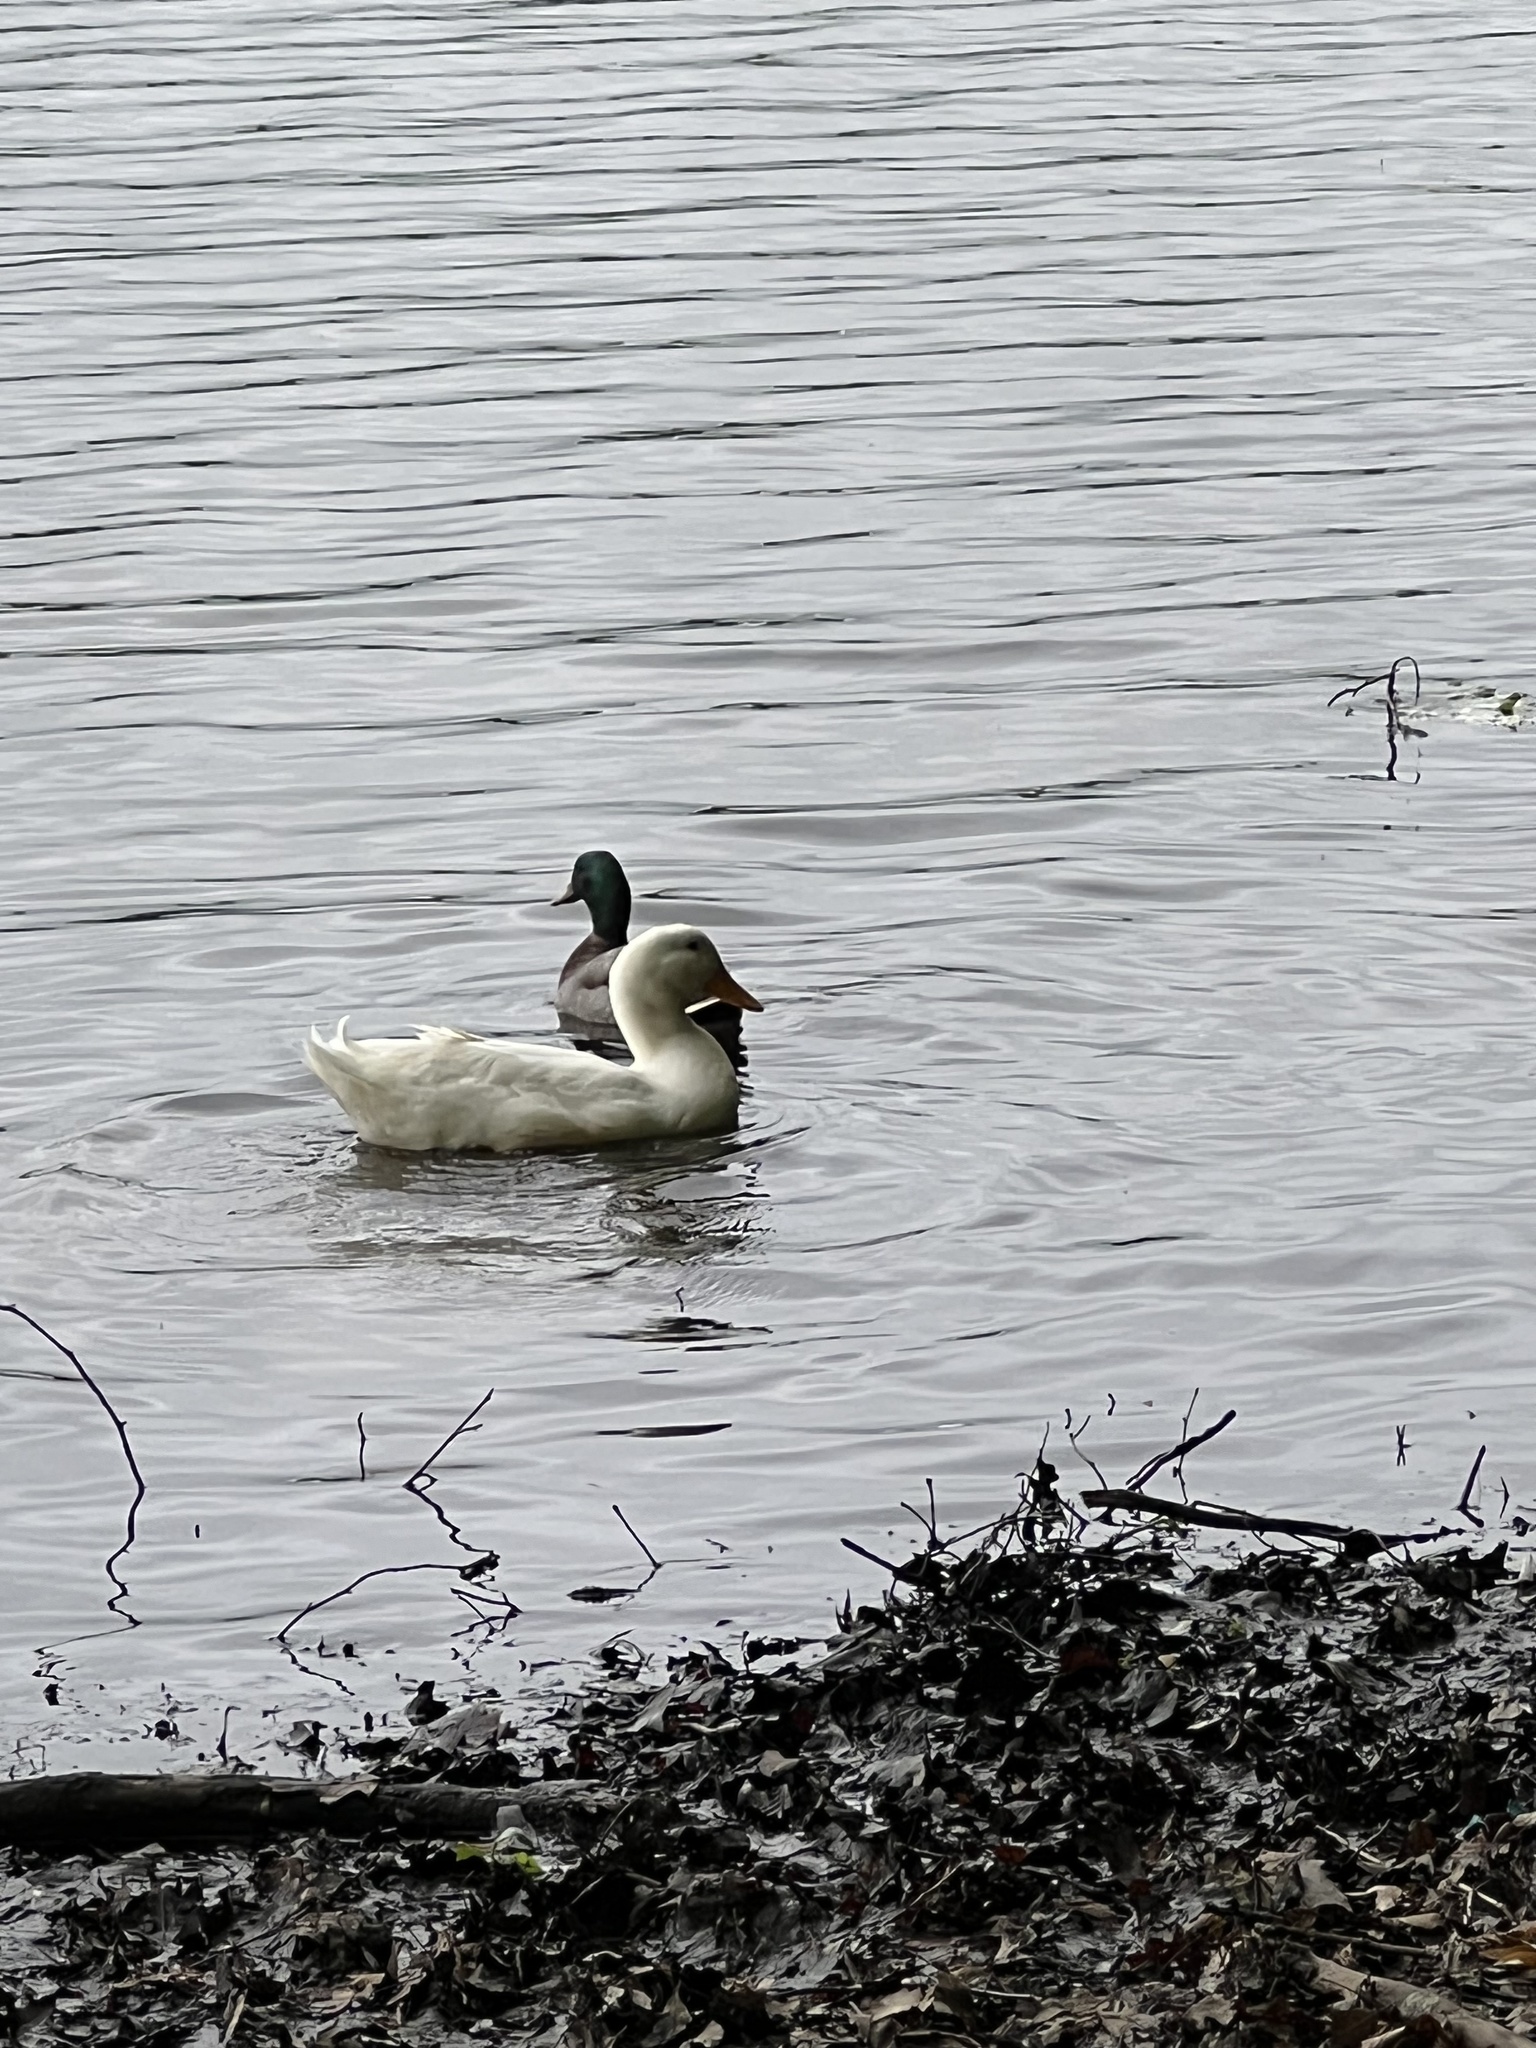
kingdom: Animalia
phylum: Chordata
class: Aves
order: Anseriformes
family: Anatidae
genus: Anas
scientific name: Anas platyrhynchos
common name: Mallard
